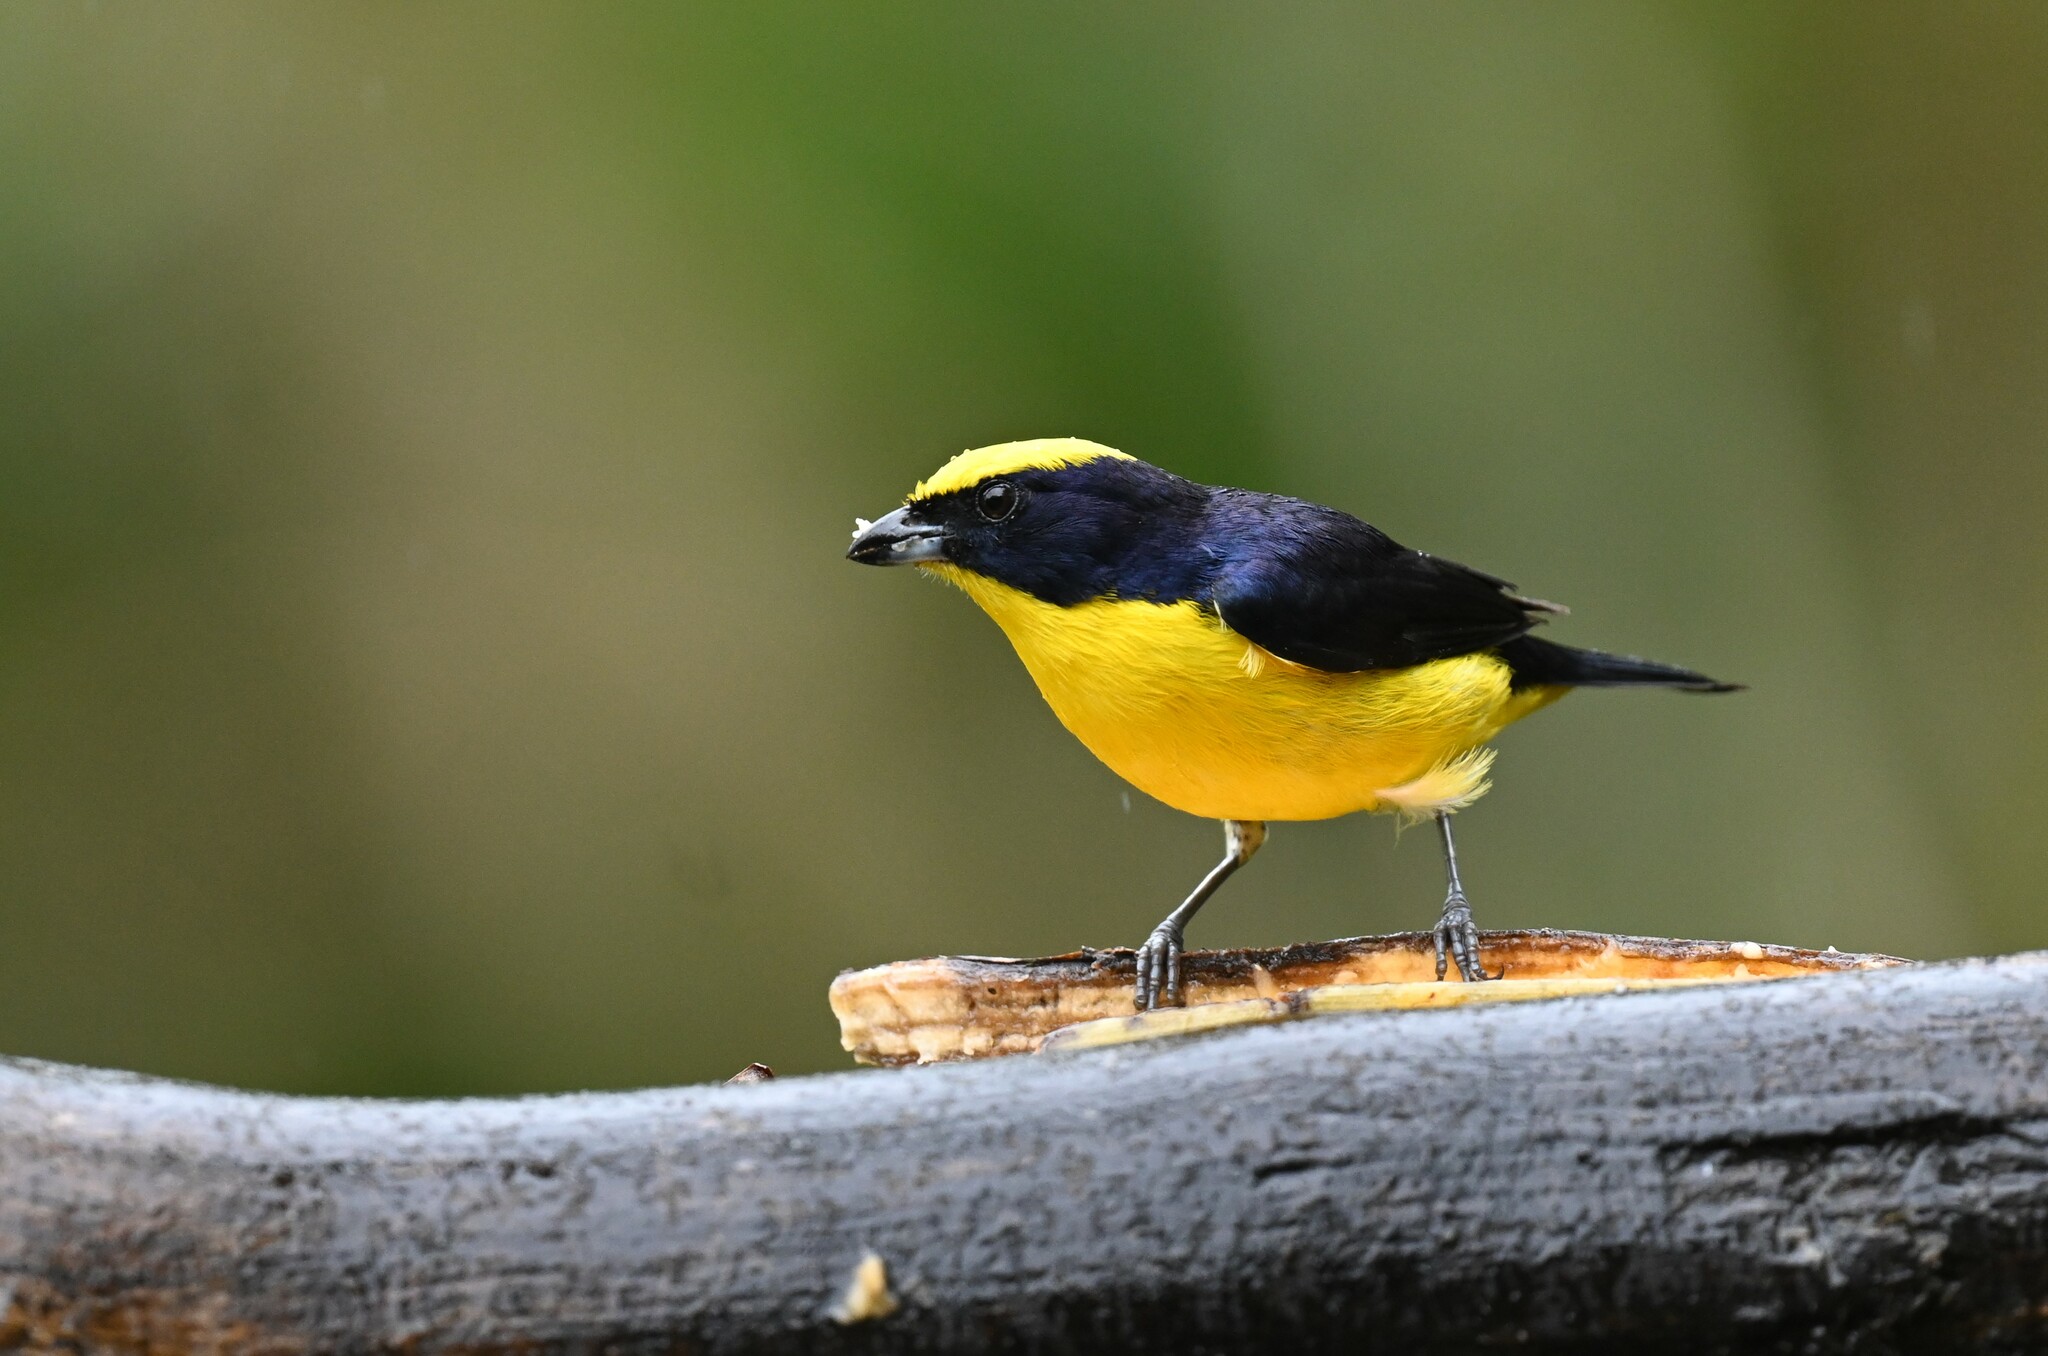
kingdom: Animalia
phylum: Chordata
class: Aves
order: Passeriformes
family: Fringillidae
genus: Euphonia
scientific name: Euphonia laniirostris
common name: Thick-billed euphonia
